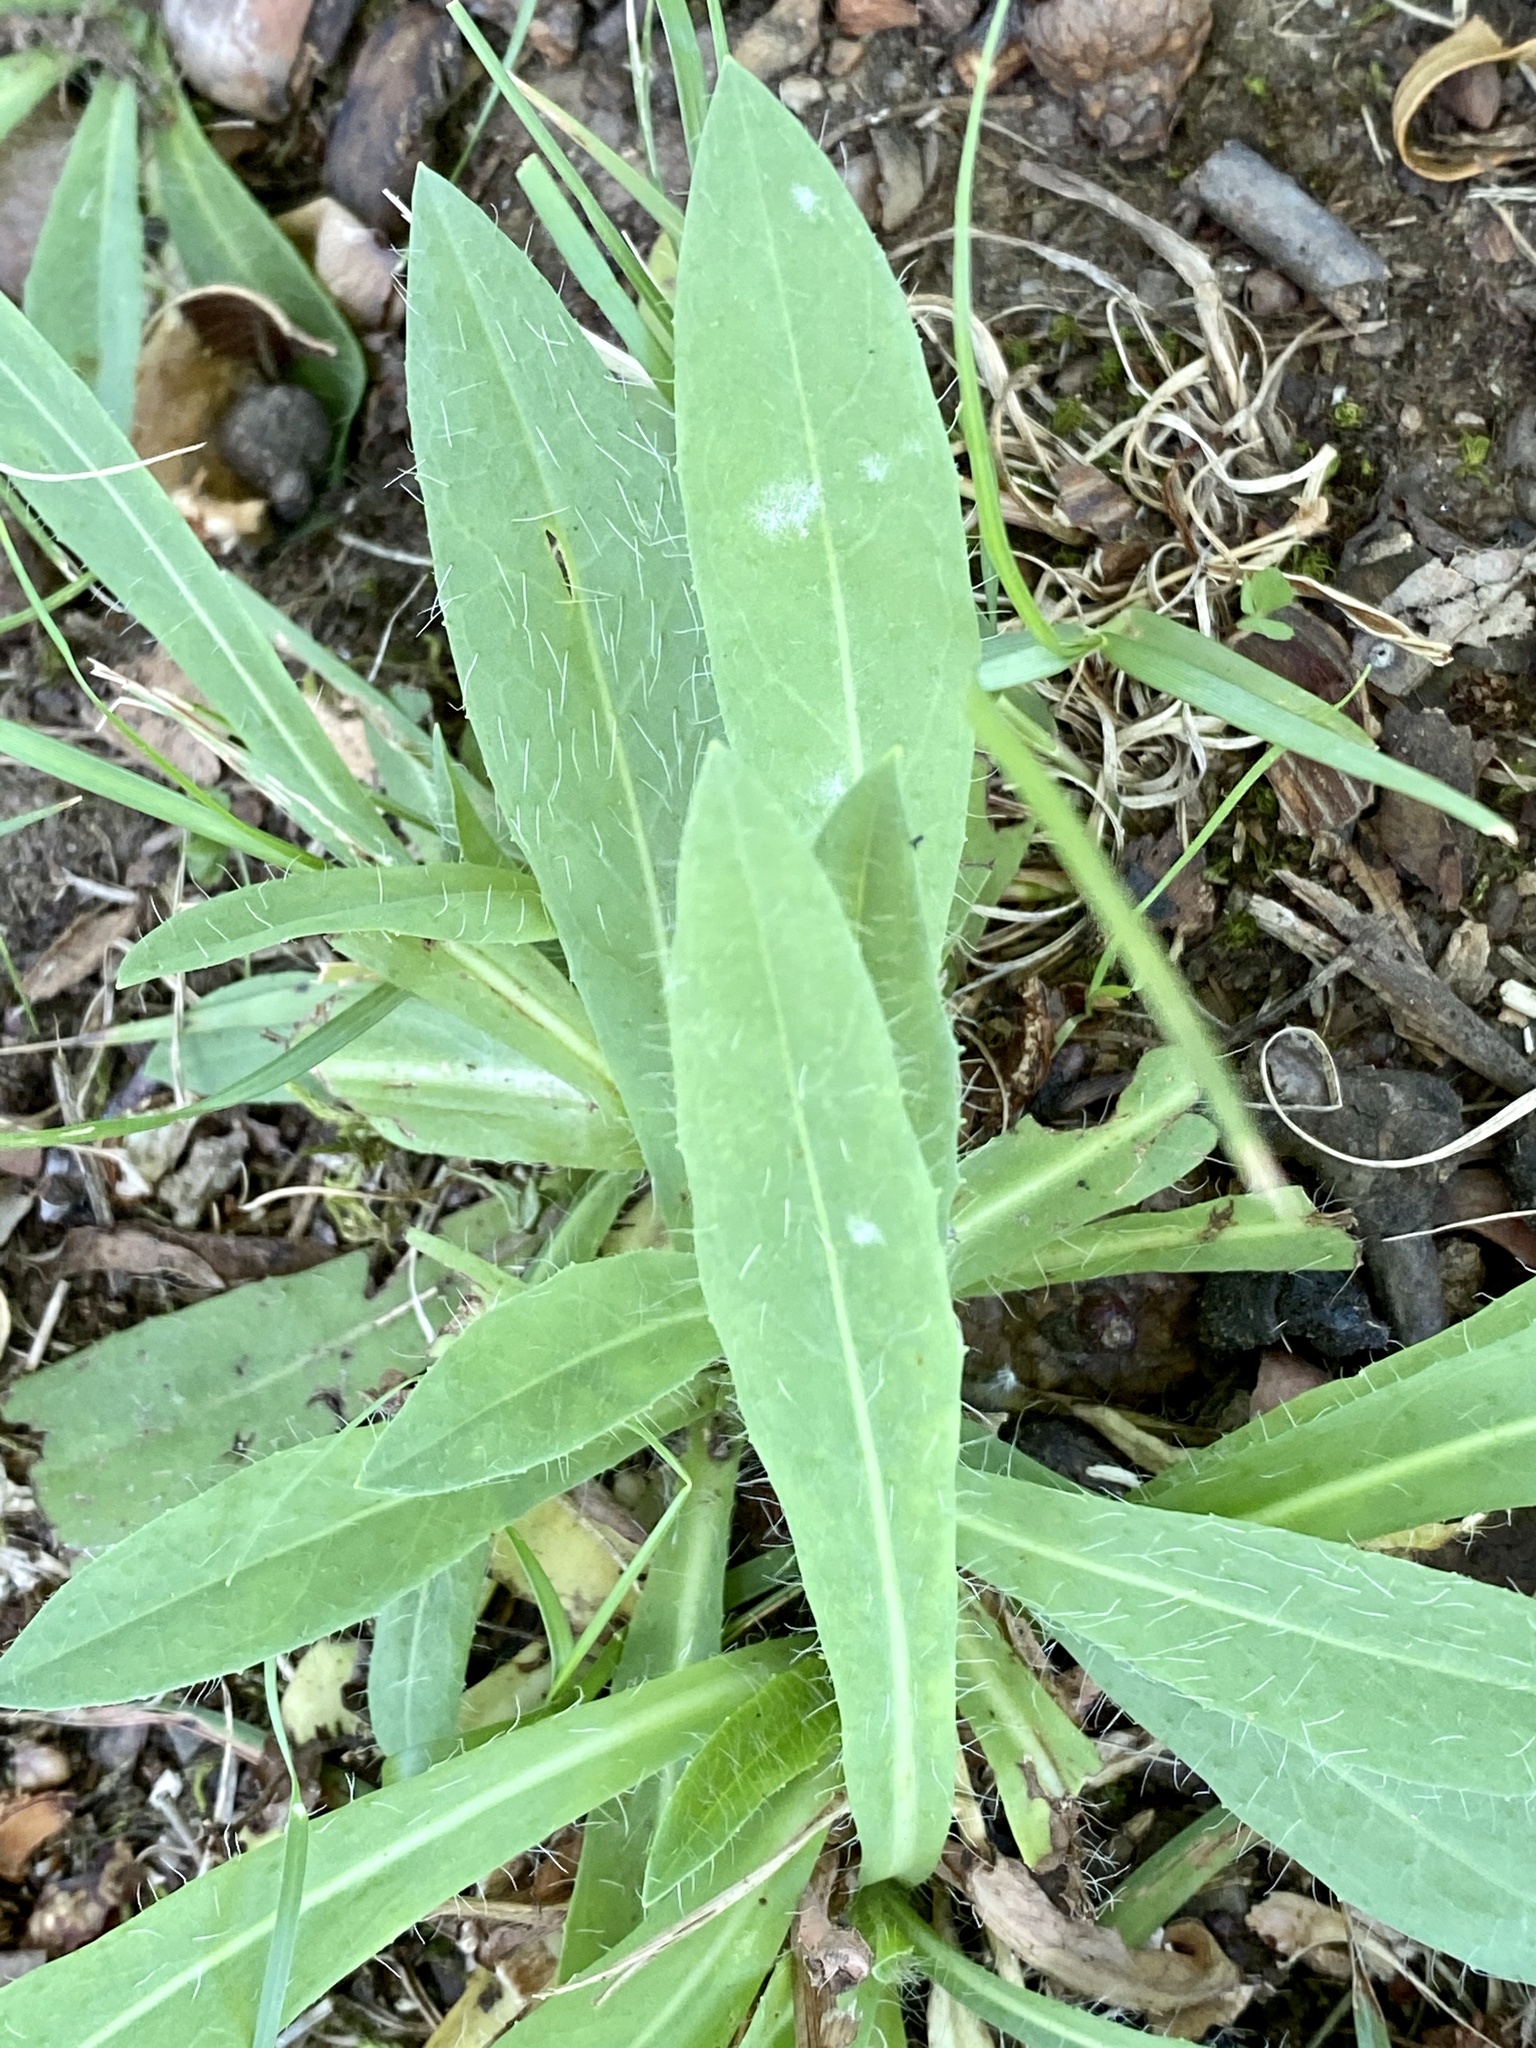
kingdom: Plantae
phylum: Tracheophyta
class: Magnoliopsida
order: Asterales
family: Asteraceae
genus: Pilosella
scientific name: Pilosella caespitosa
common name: Yellow fox-and-cubs
